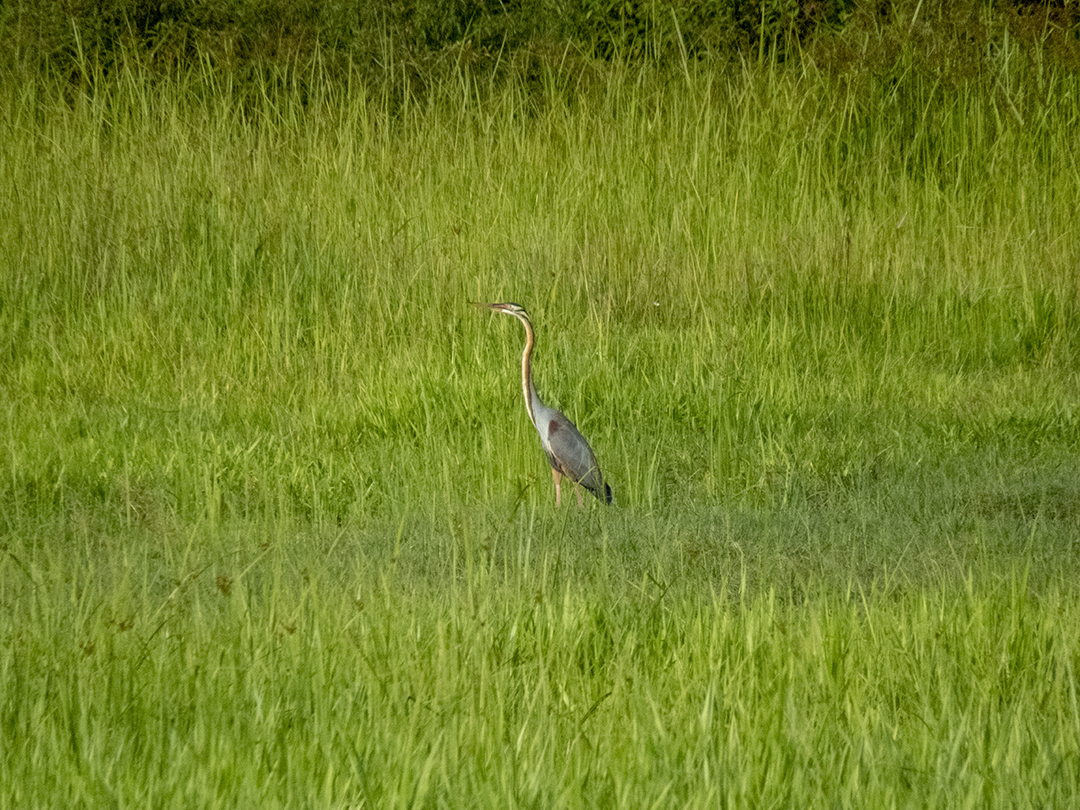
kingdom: Animalia
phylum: Chordata
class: Aves
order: Pelecaniformes
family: Ardeidae
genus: Ardea
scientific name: Ardea purpurea
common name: Purple heron
